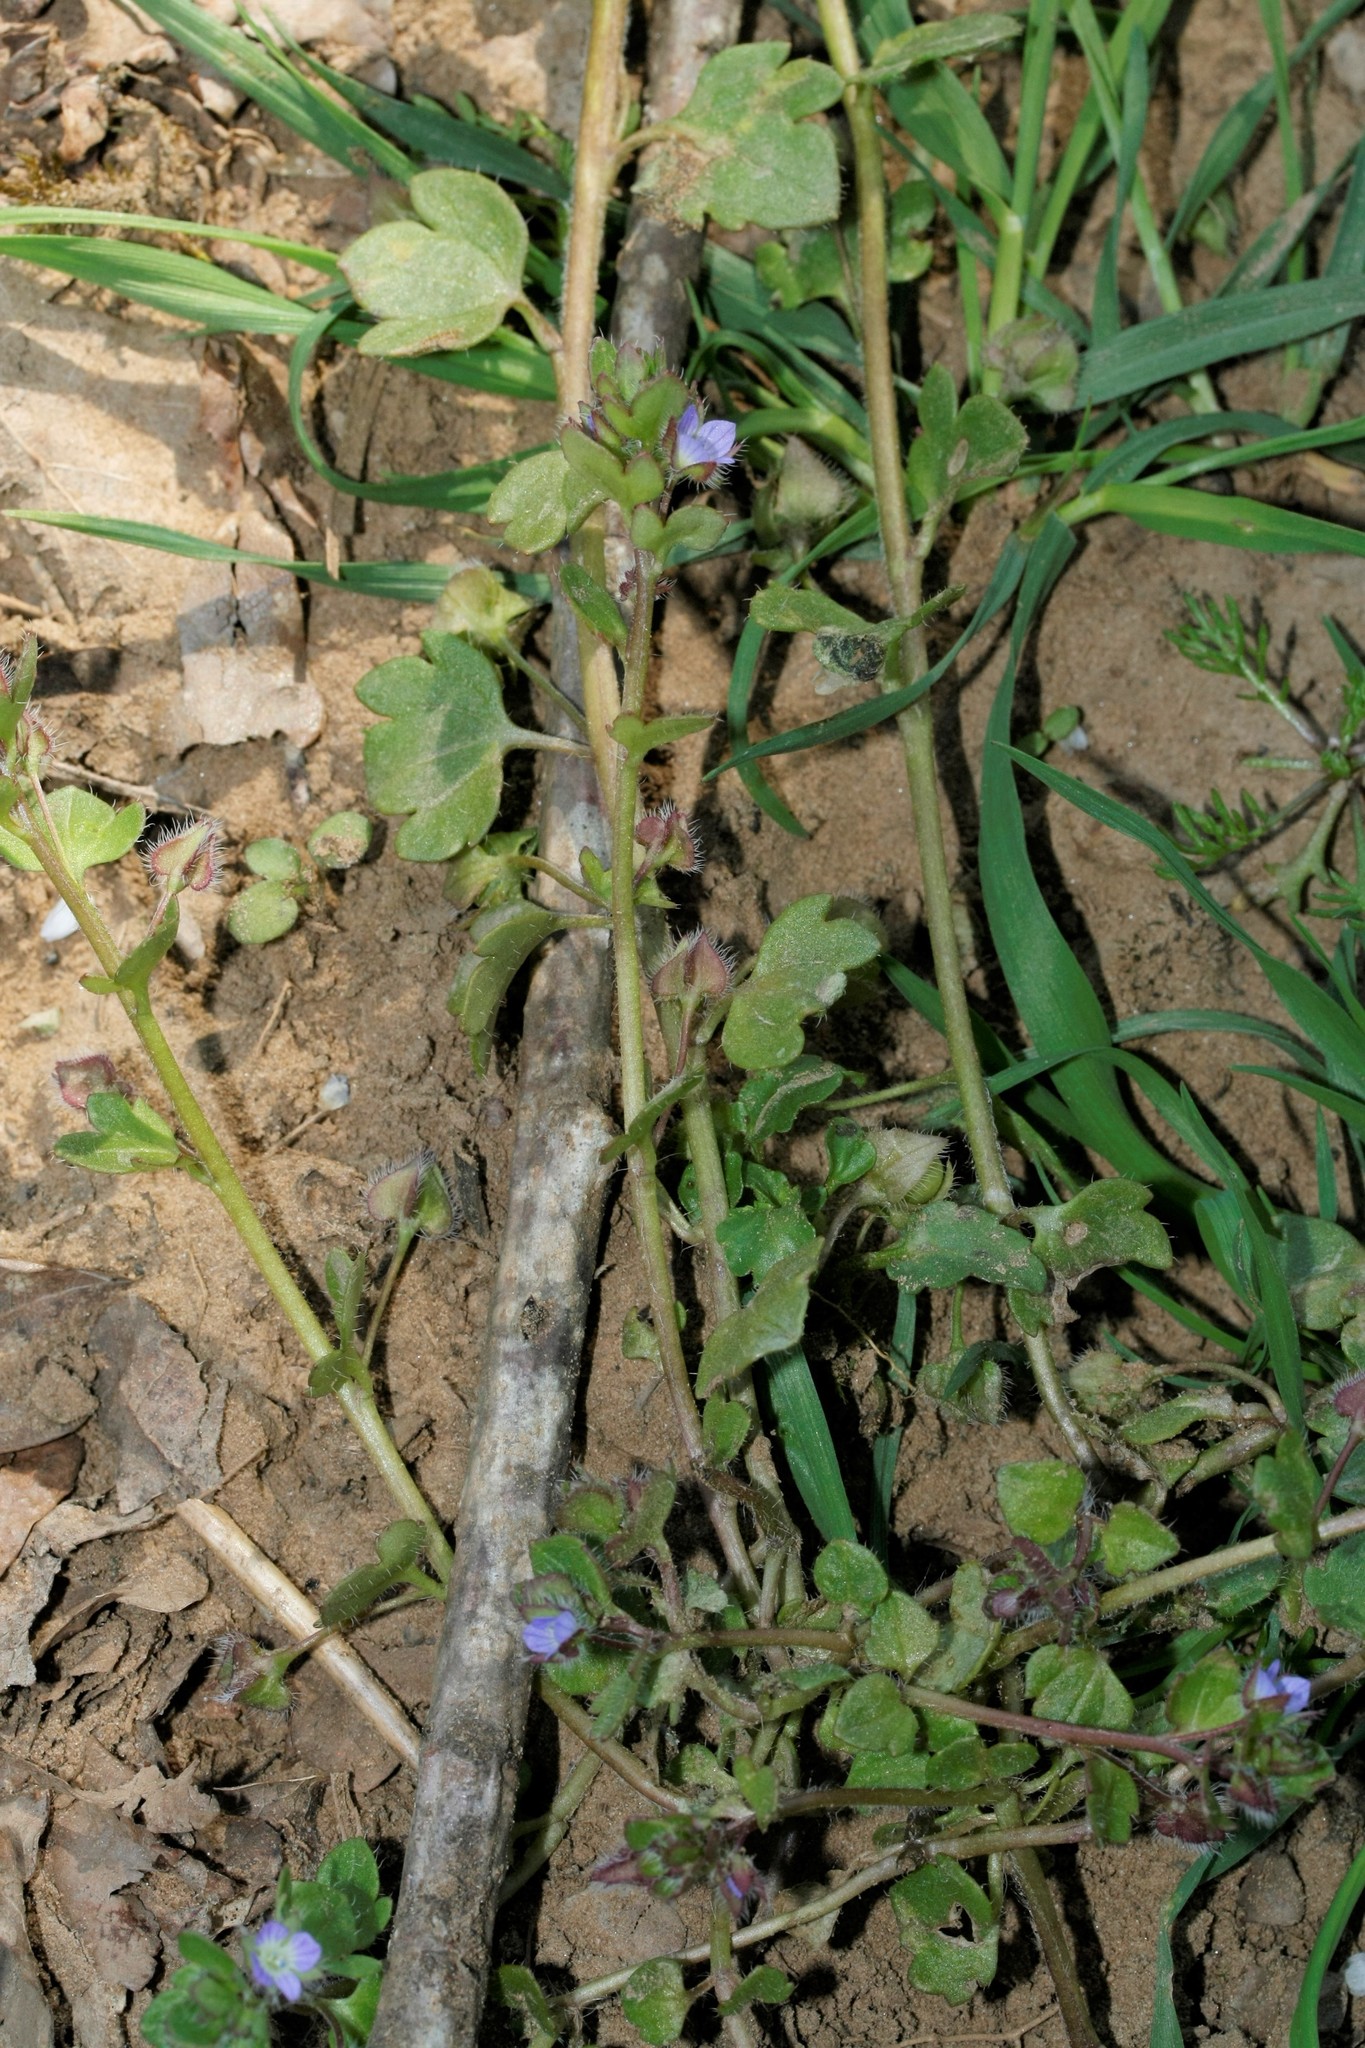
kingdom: Plantae
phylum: Tracheophyta
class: Magnoliopsida
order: Lamiales
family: Plantaginaceae
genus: Veronica
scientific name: Veronica hederifolia
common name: Ivy-leaved speedwell
